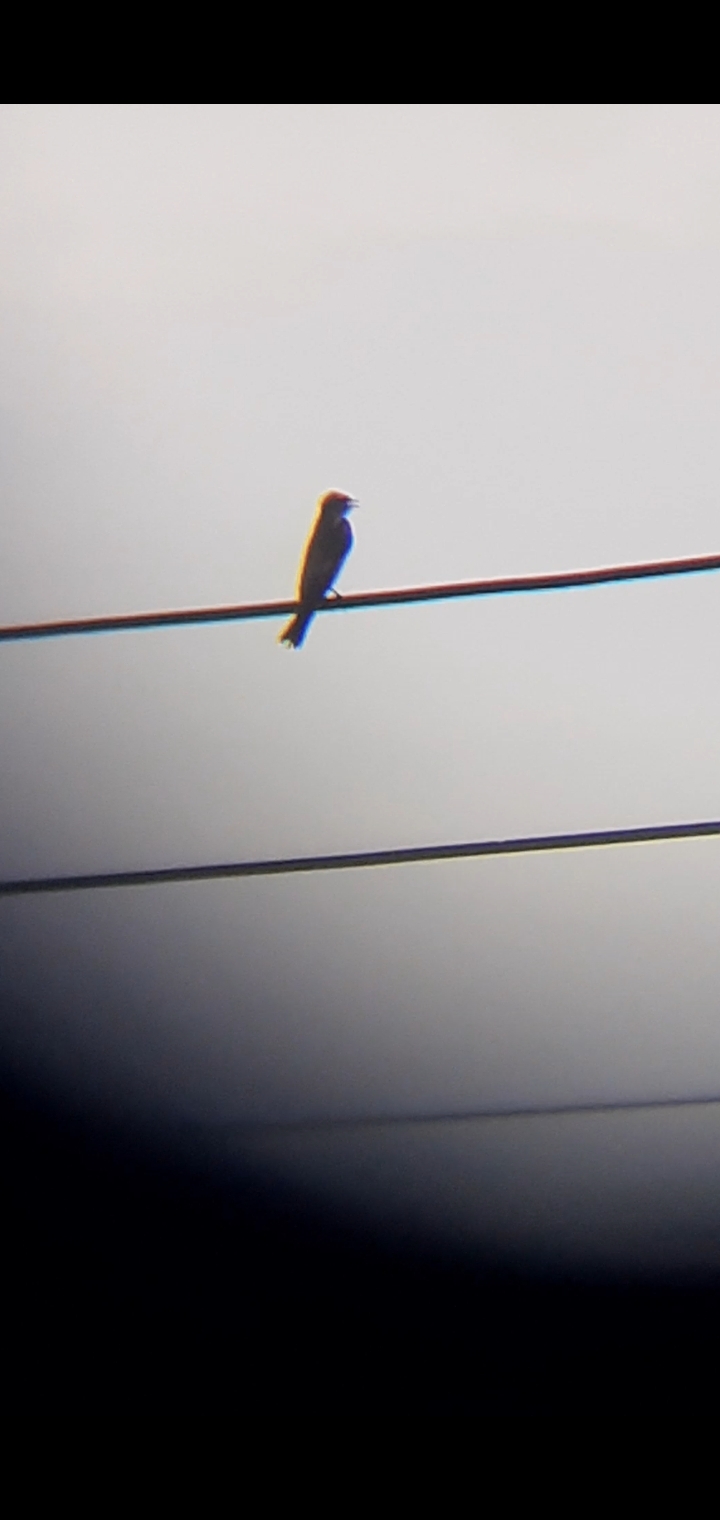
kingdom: Animalia
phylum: Chordata
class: Aves
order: Passeriformes
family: Hirundinidae
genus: Stelgidopteryx
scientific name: Stelgidopteryx serripennis
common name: Northern rough-winged swallow
